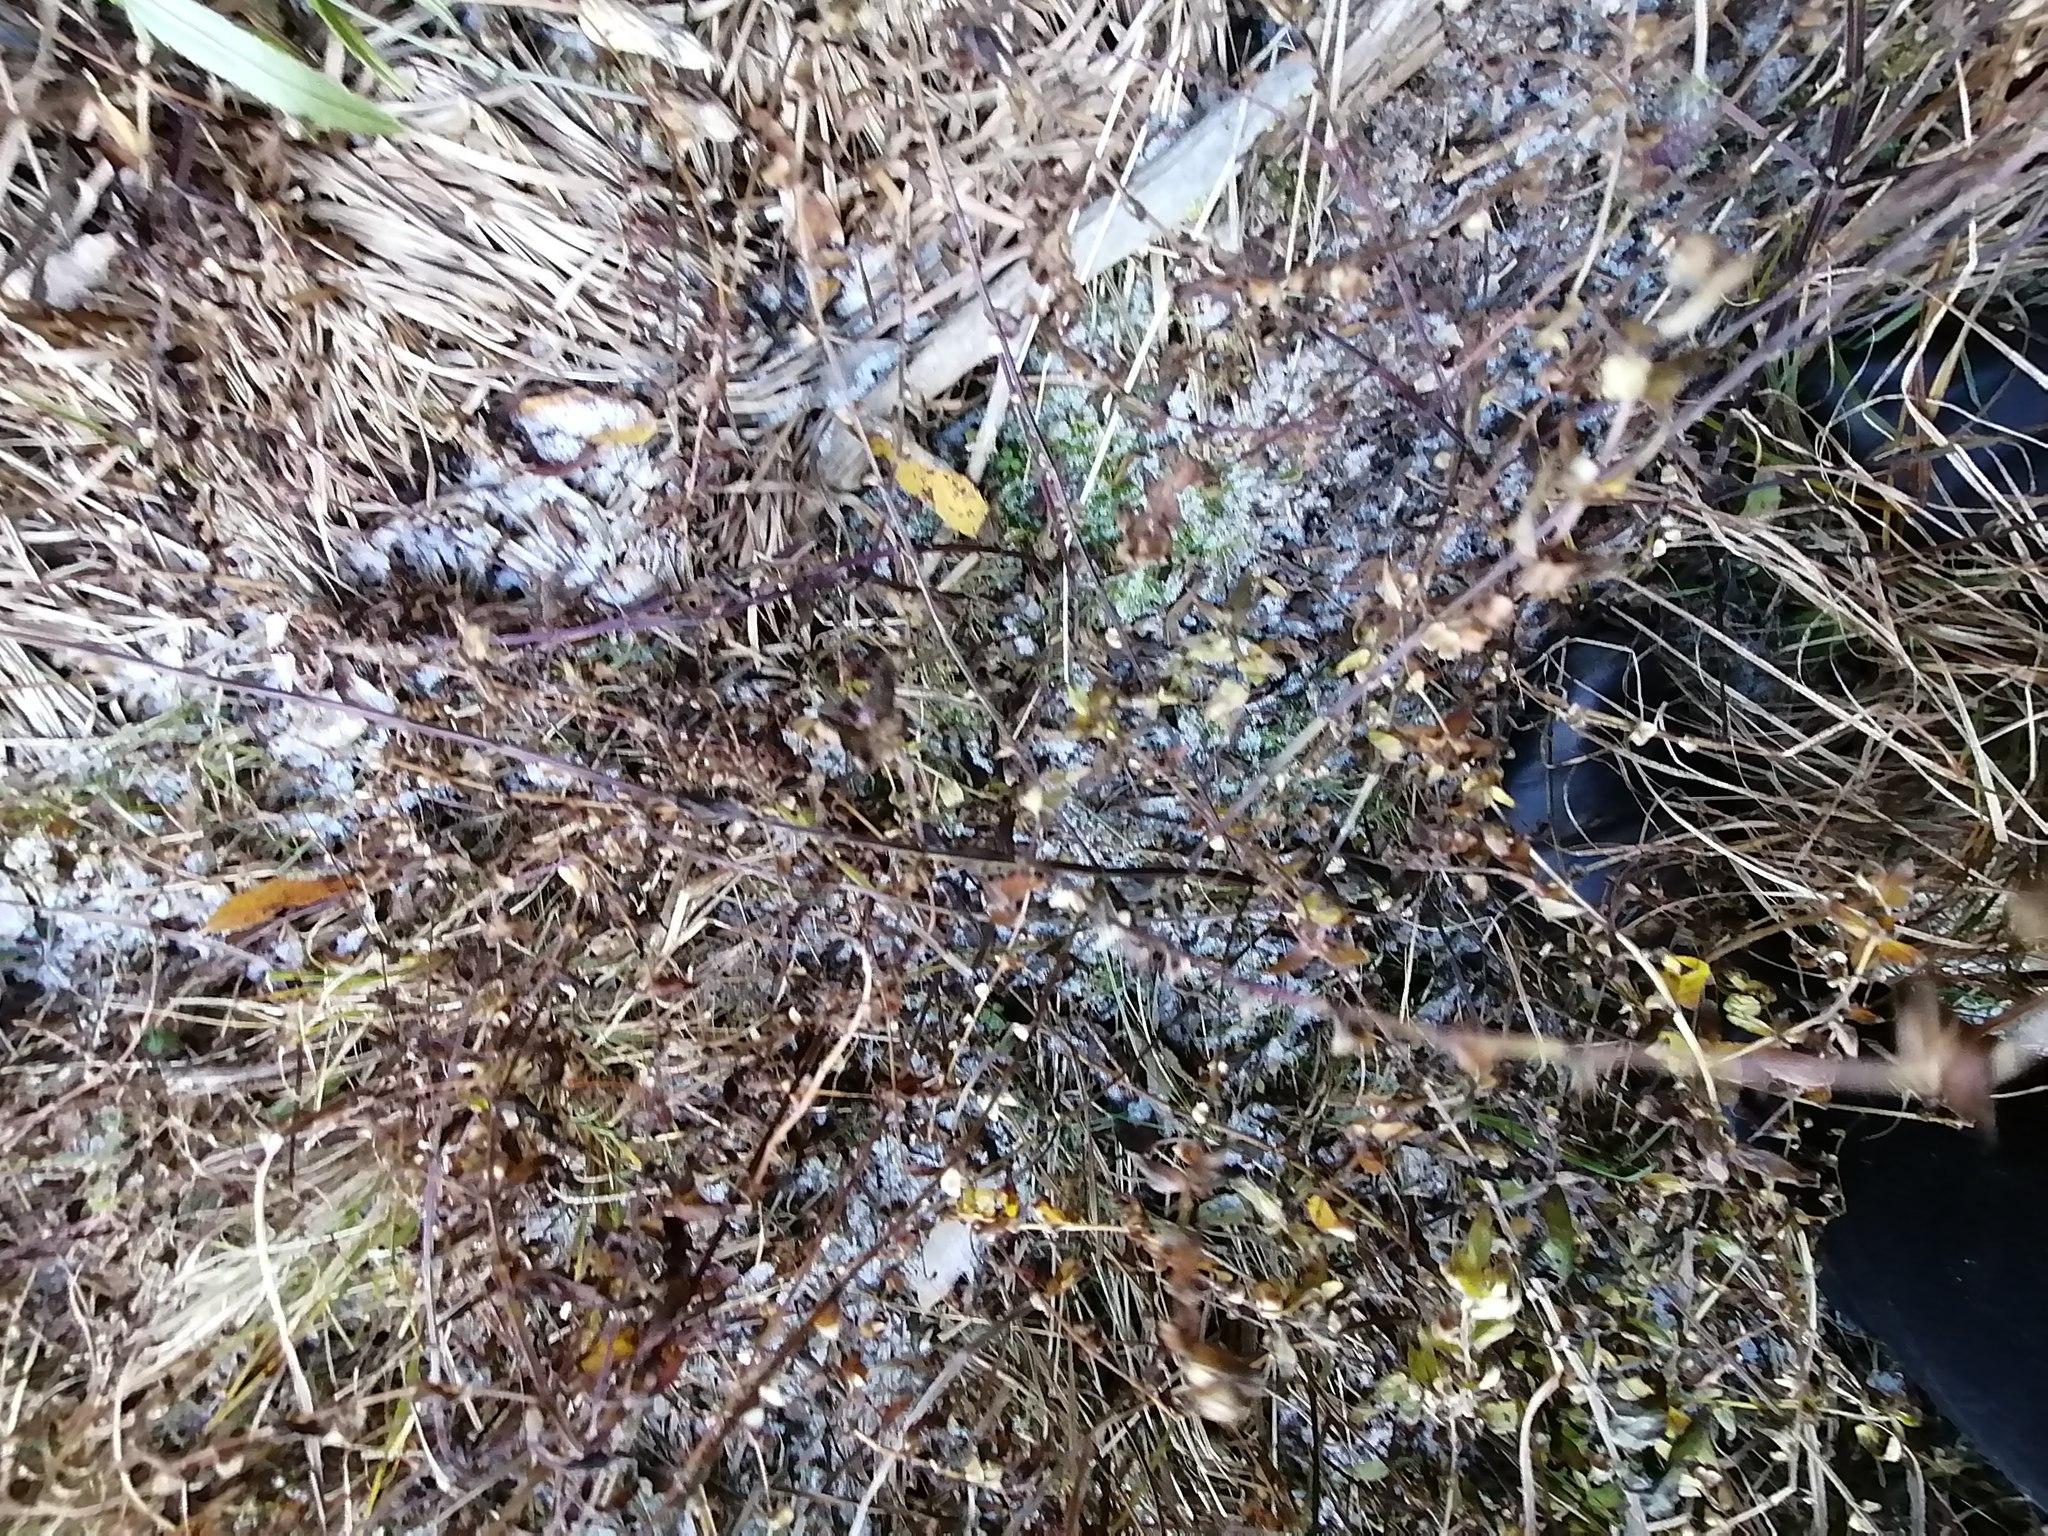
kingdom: Plantae
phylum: Tracheophyta
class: Magnoliopsida
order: Lamiales
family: Lamiaceae
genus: Stachys
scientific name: Stachys palustris
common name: Marsh woundwort
